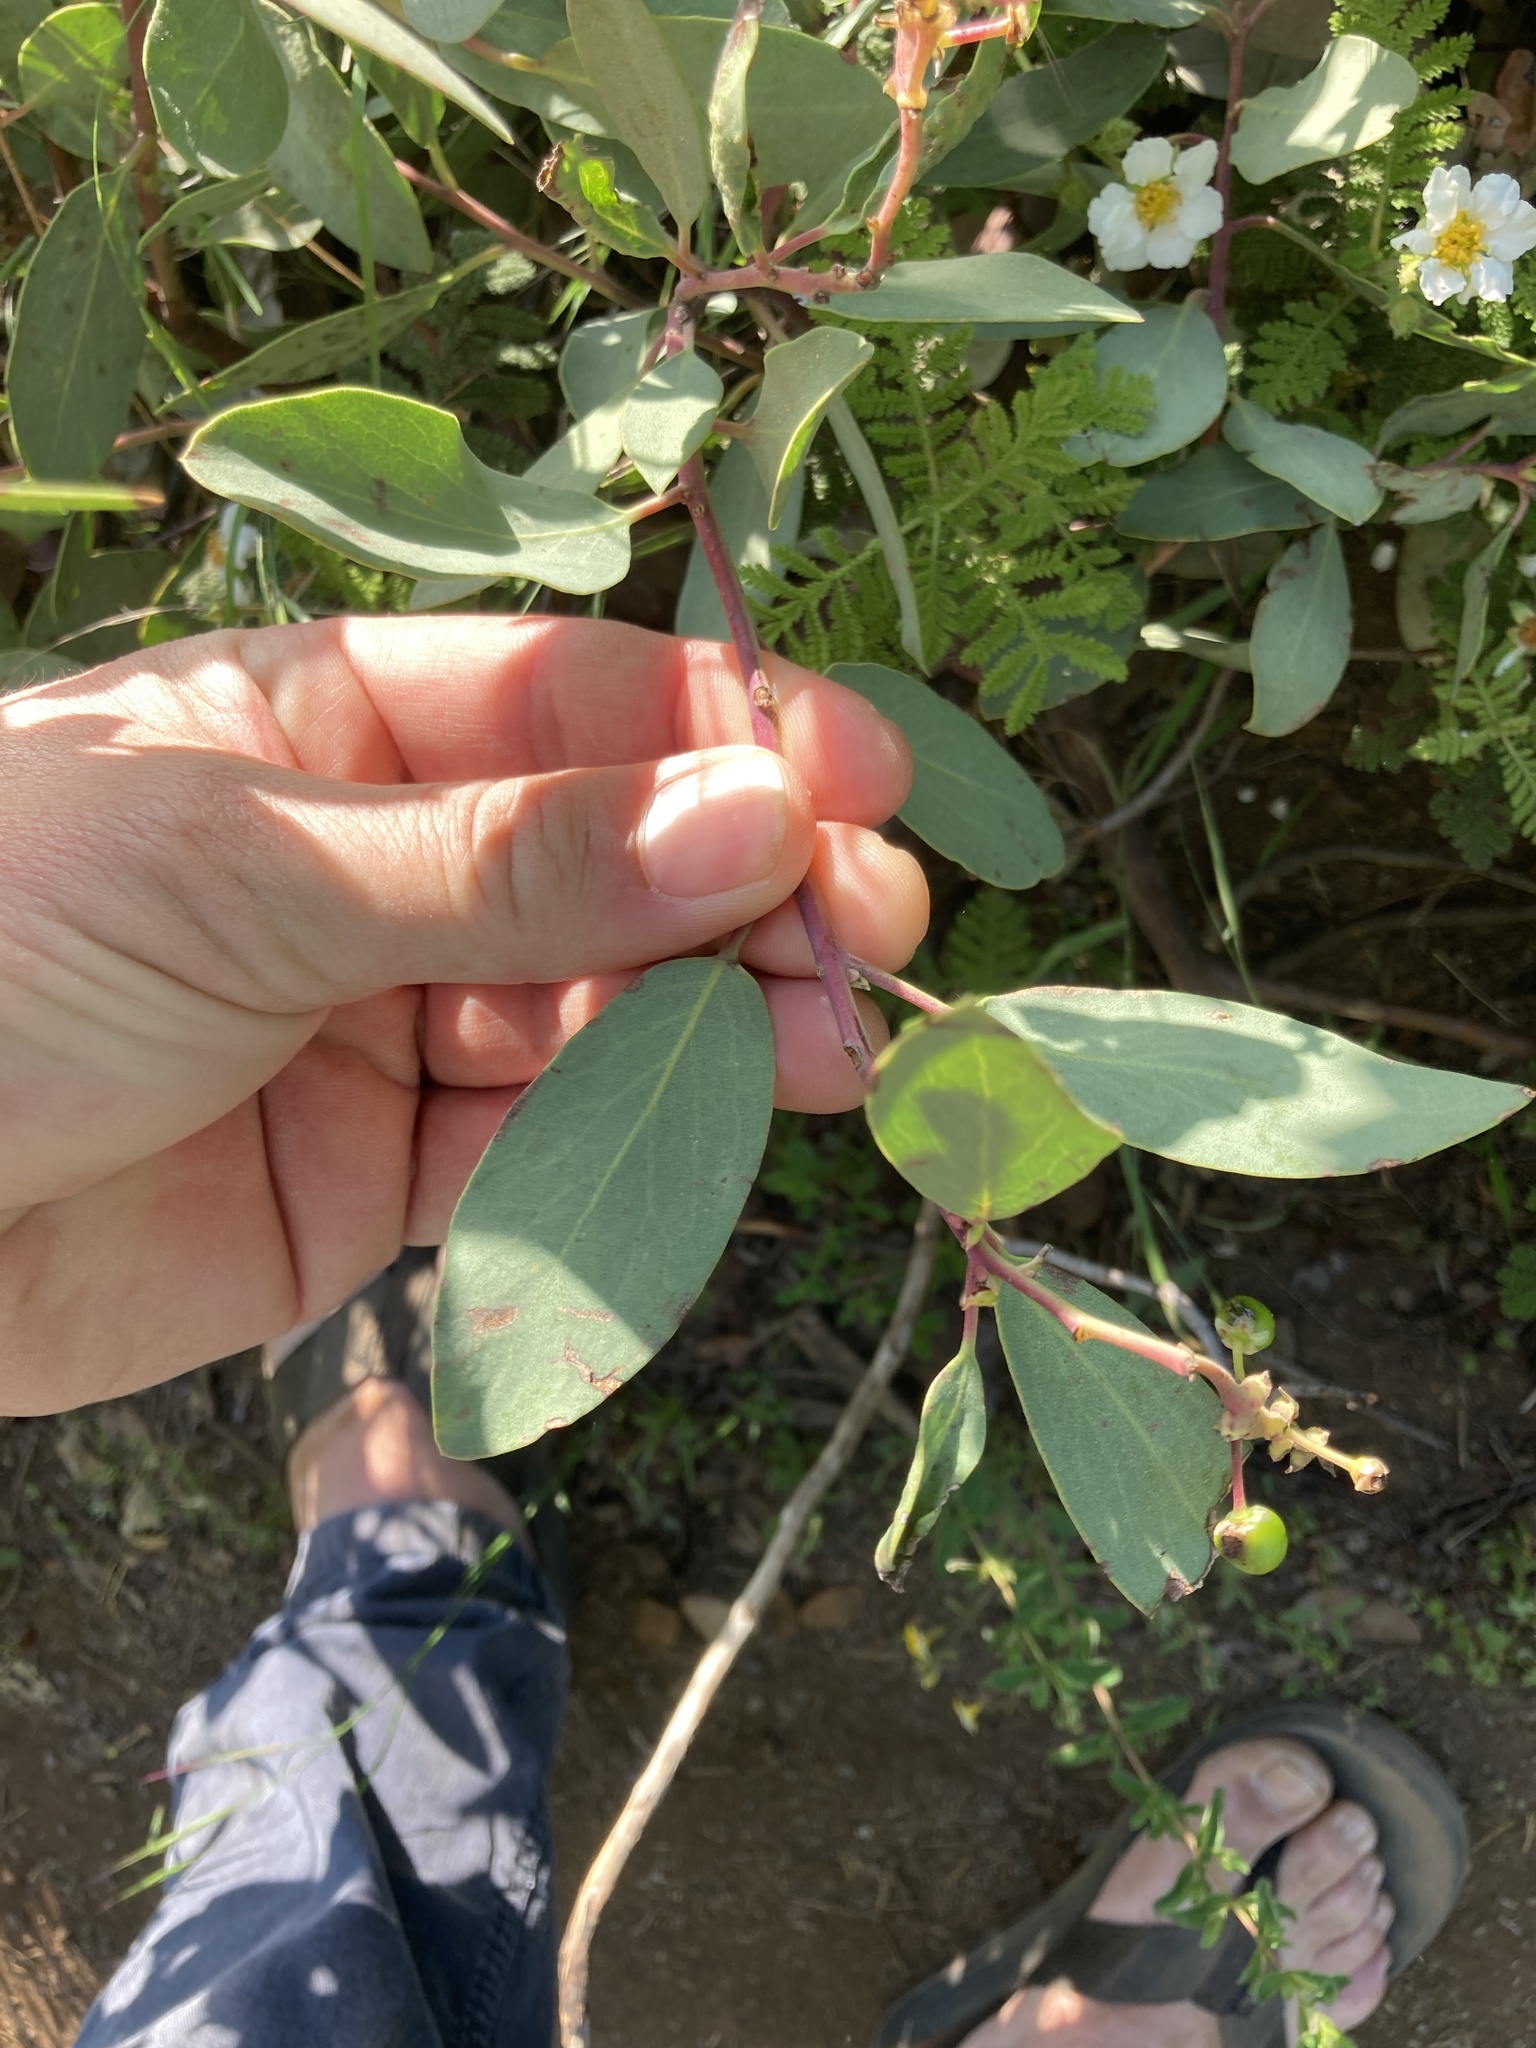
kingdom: Plantae
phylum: Tracheophyta
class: Magnoliopsida
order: Ericales
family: Ericaceae
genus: Arctostaphylos
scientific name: Arctostaphylos mewukka
